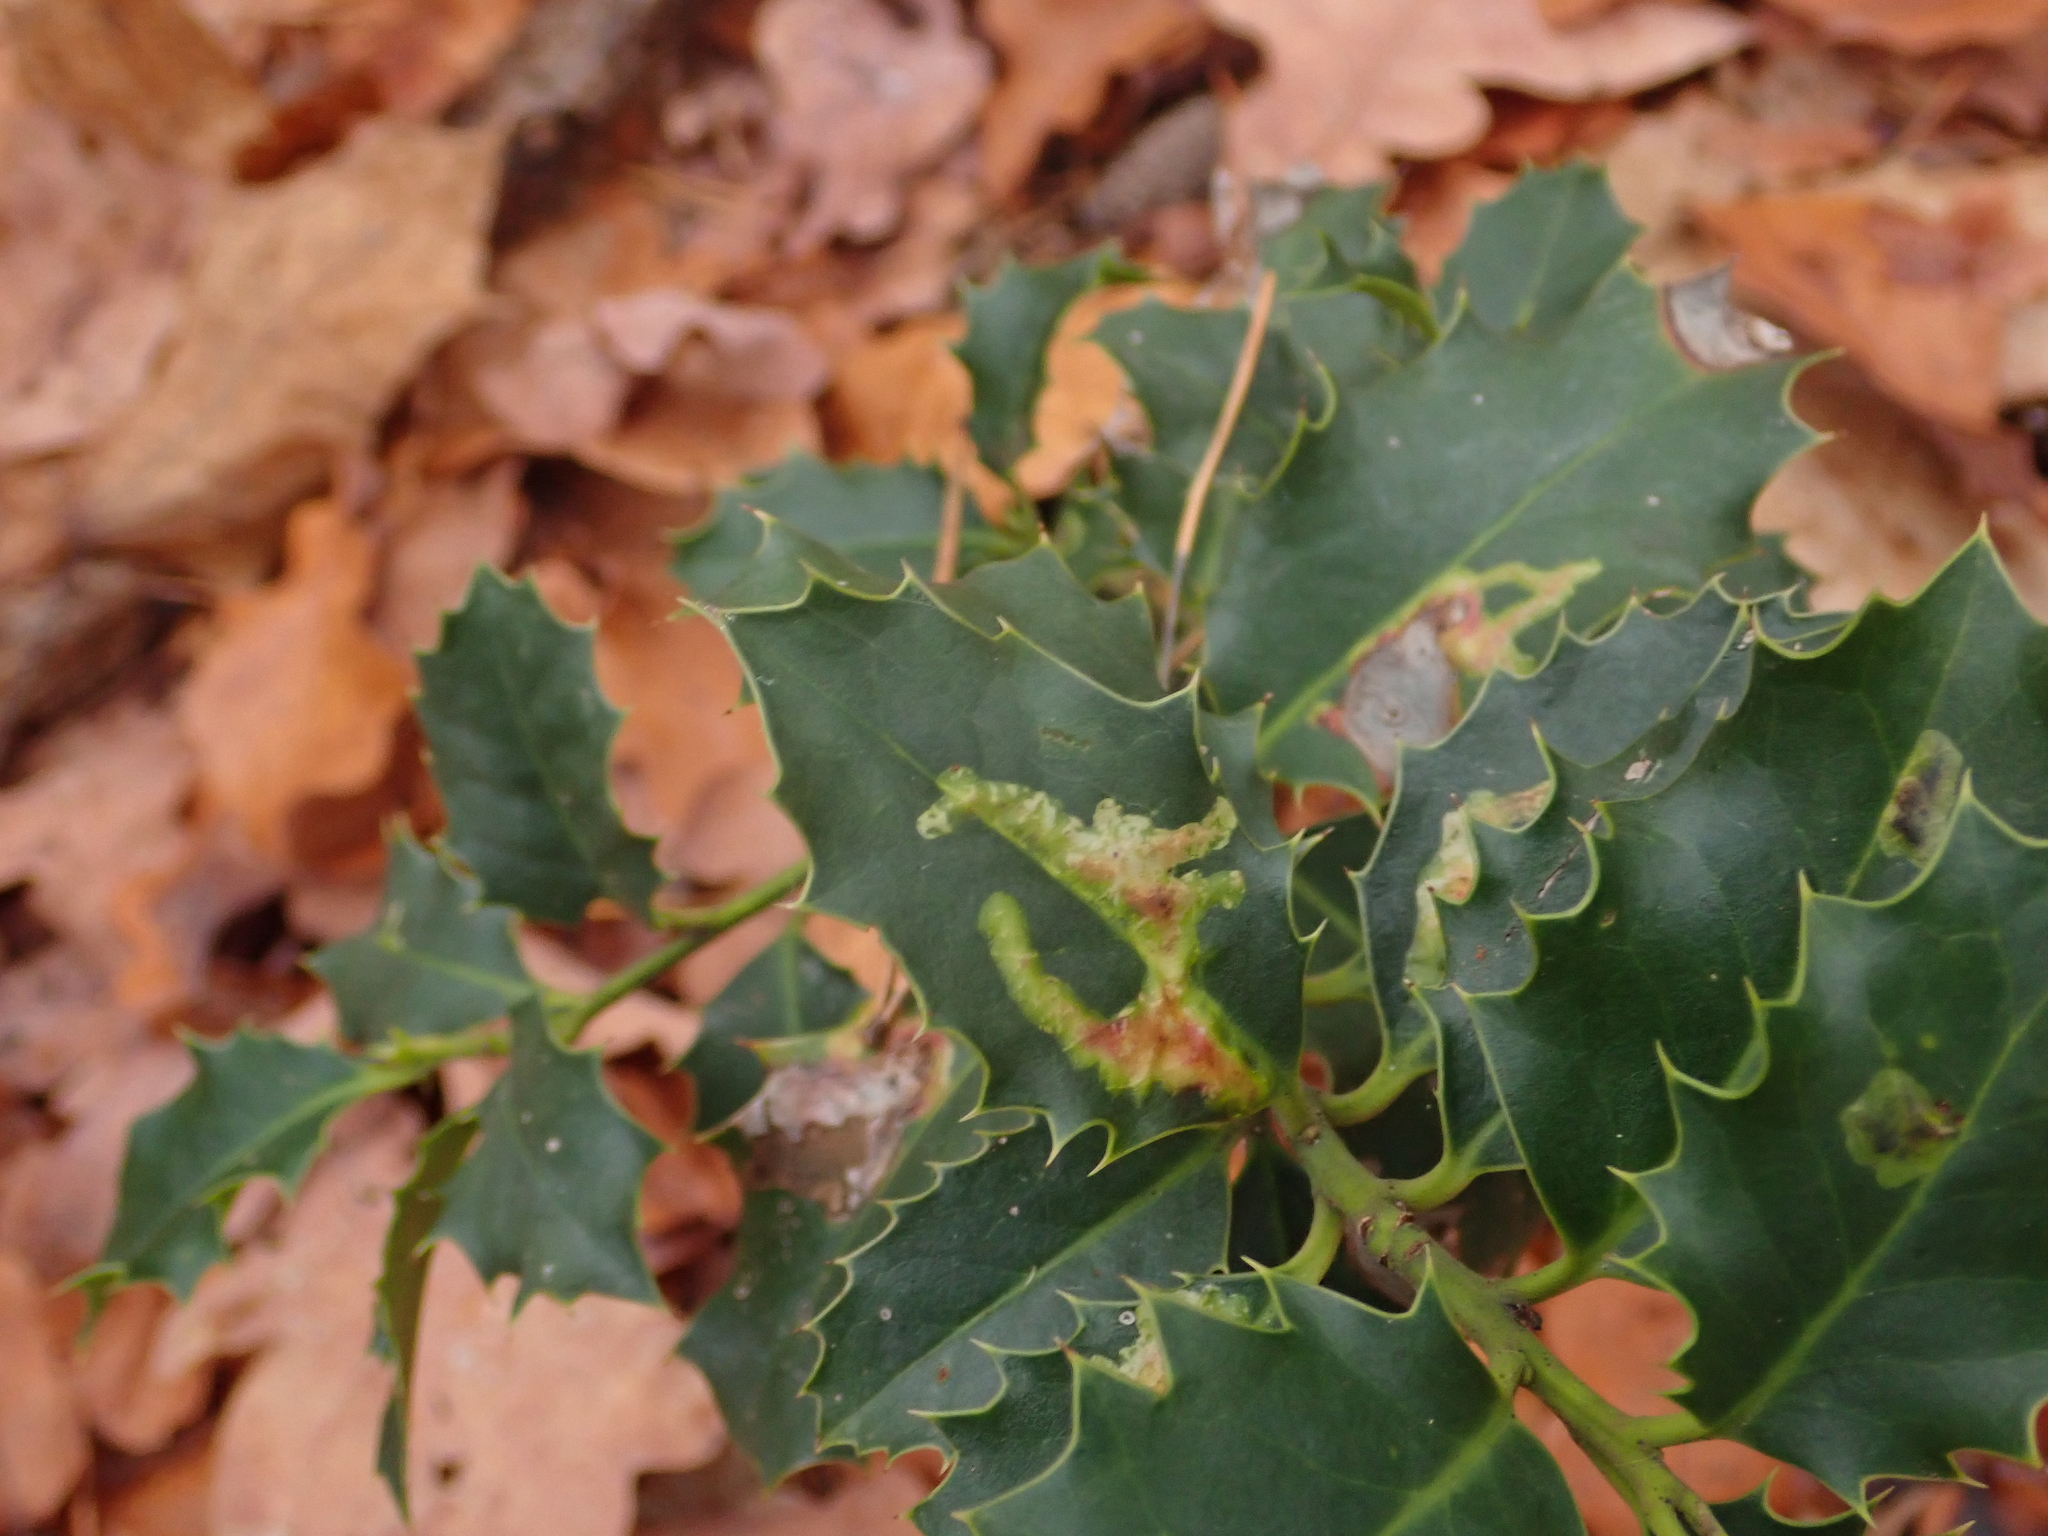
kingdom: Plantae
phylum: Tracheophyta
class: Magnoliopsida
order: Aquifoliales
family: Aquifoliaceae
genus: Ilex
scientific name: Ilex aquifolium
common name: English holly
